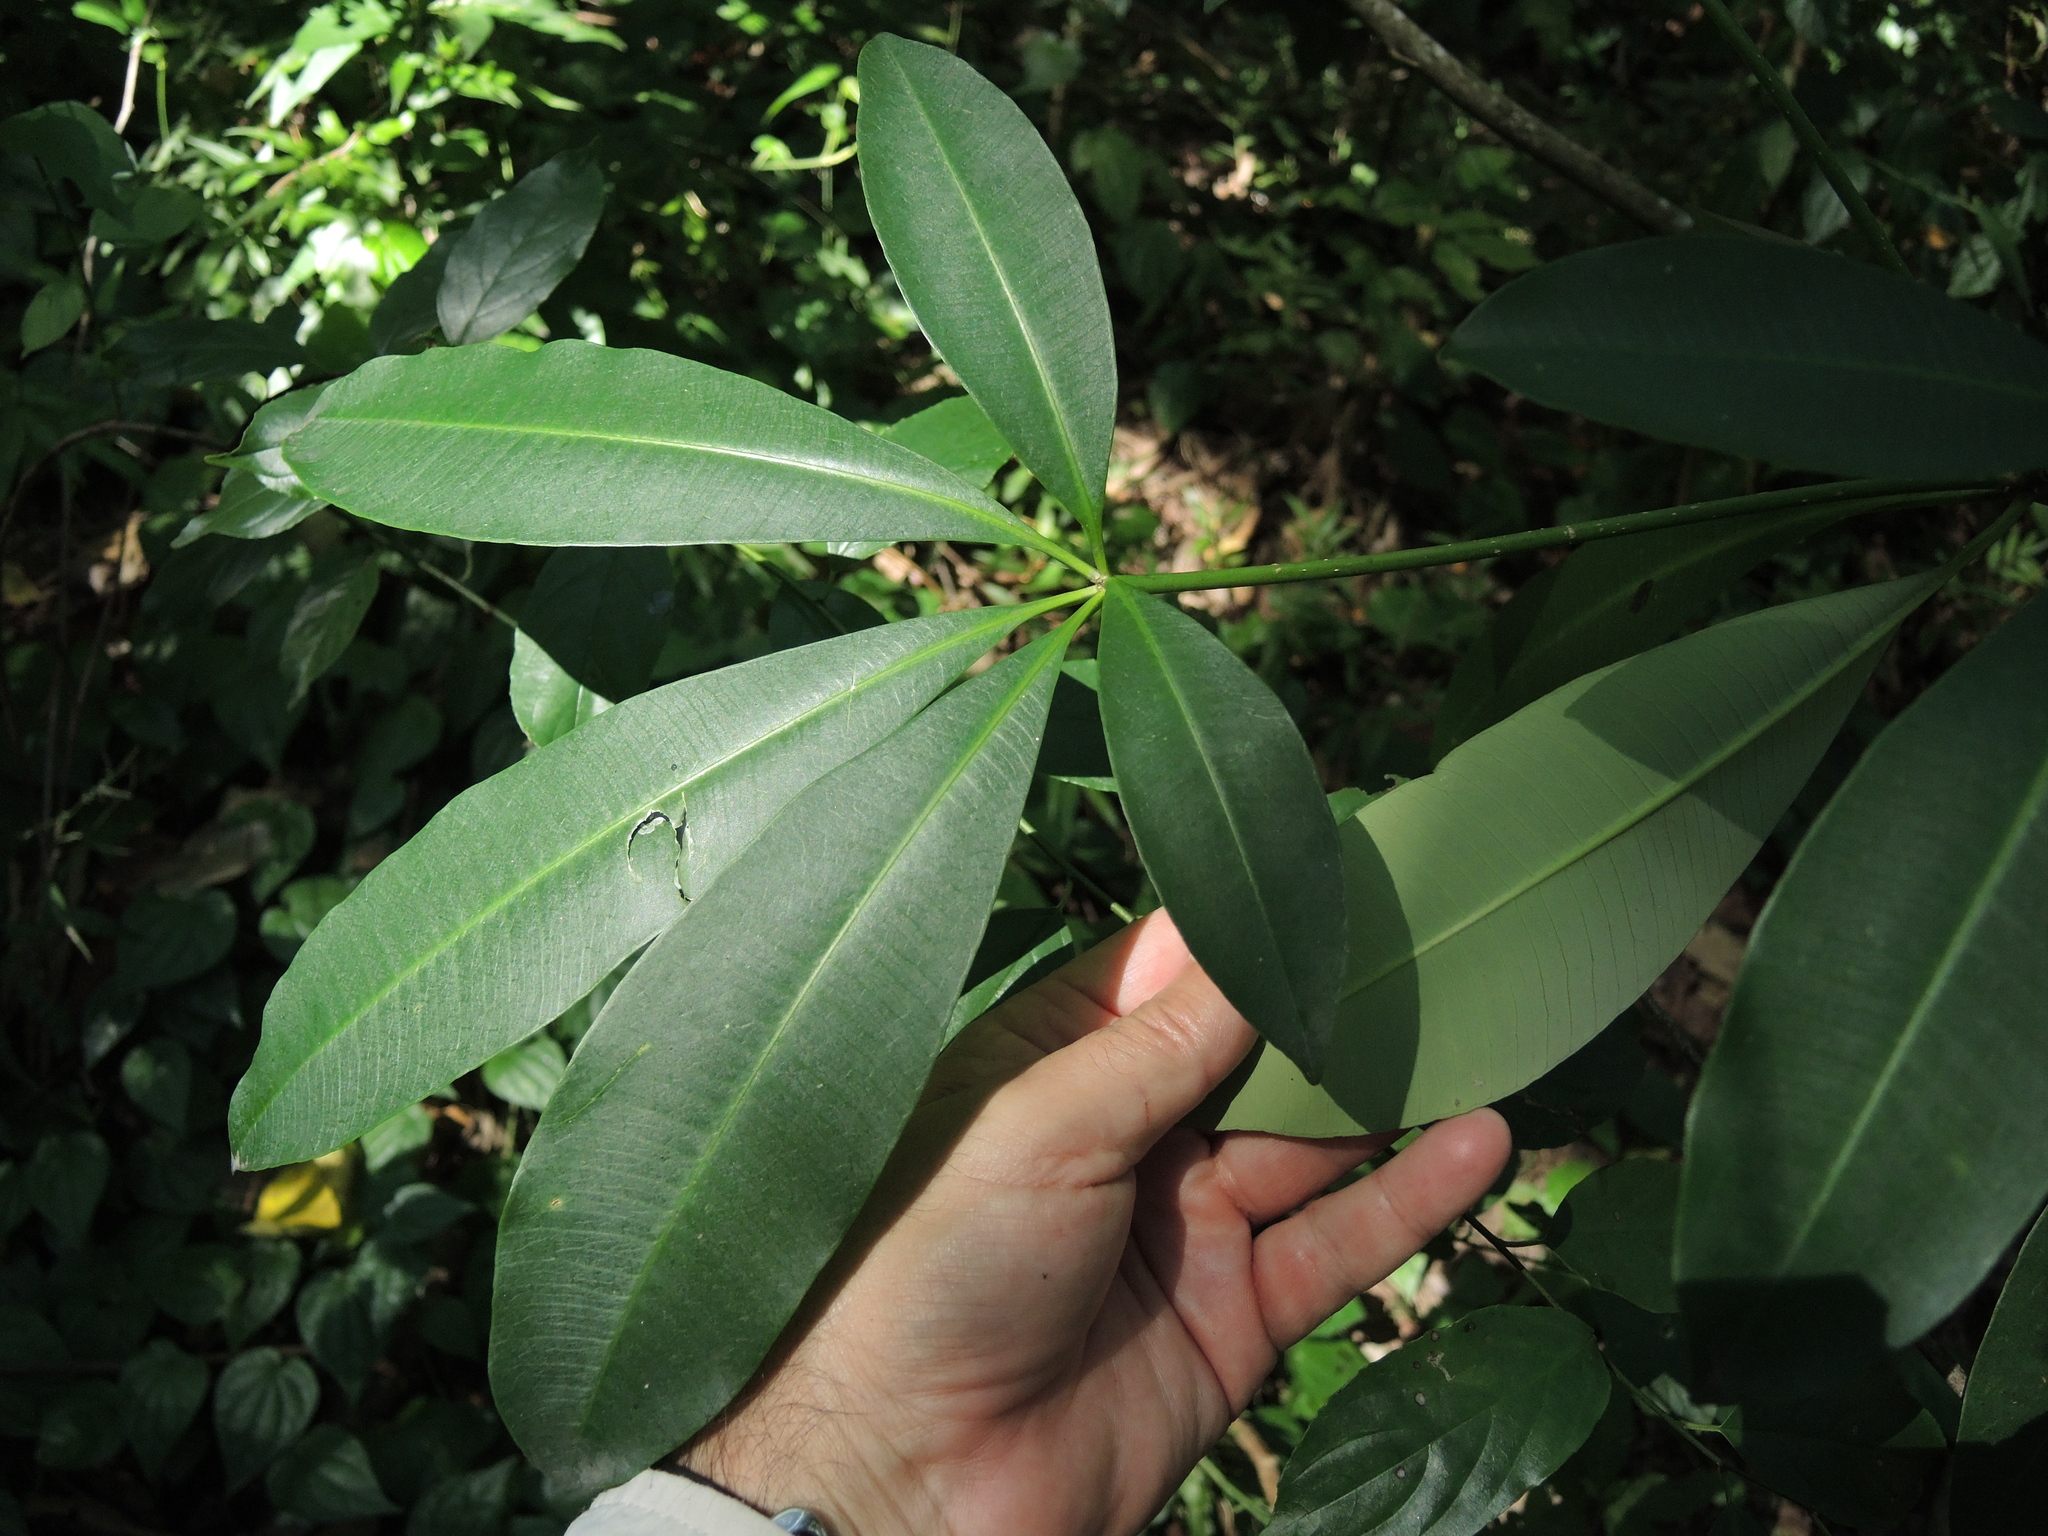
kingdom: Plantae
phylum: Tracheophyta
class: Magnoliopsida
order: Gentianales
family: Apocynaceae
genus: Alstonia
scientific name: Alstonia scholaris
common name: White cheesewood
